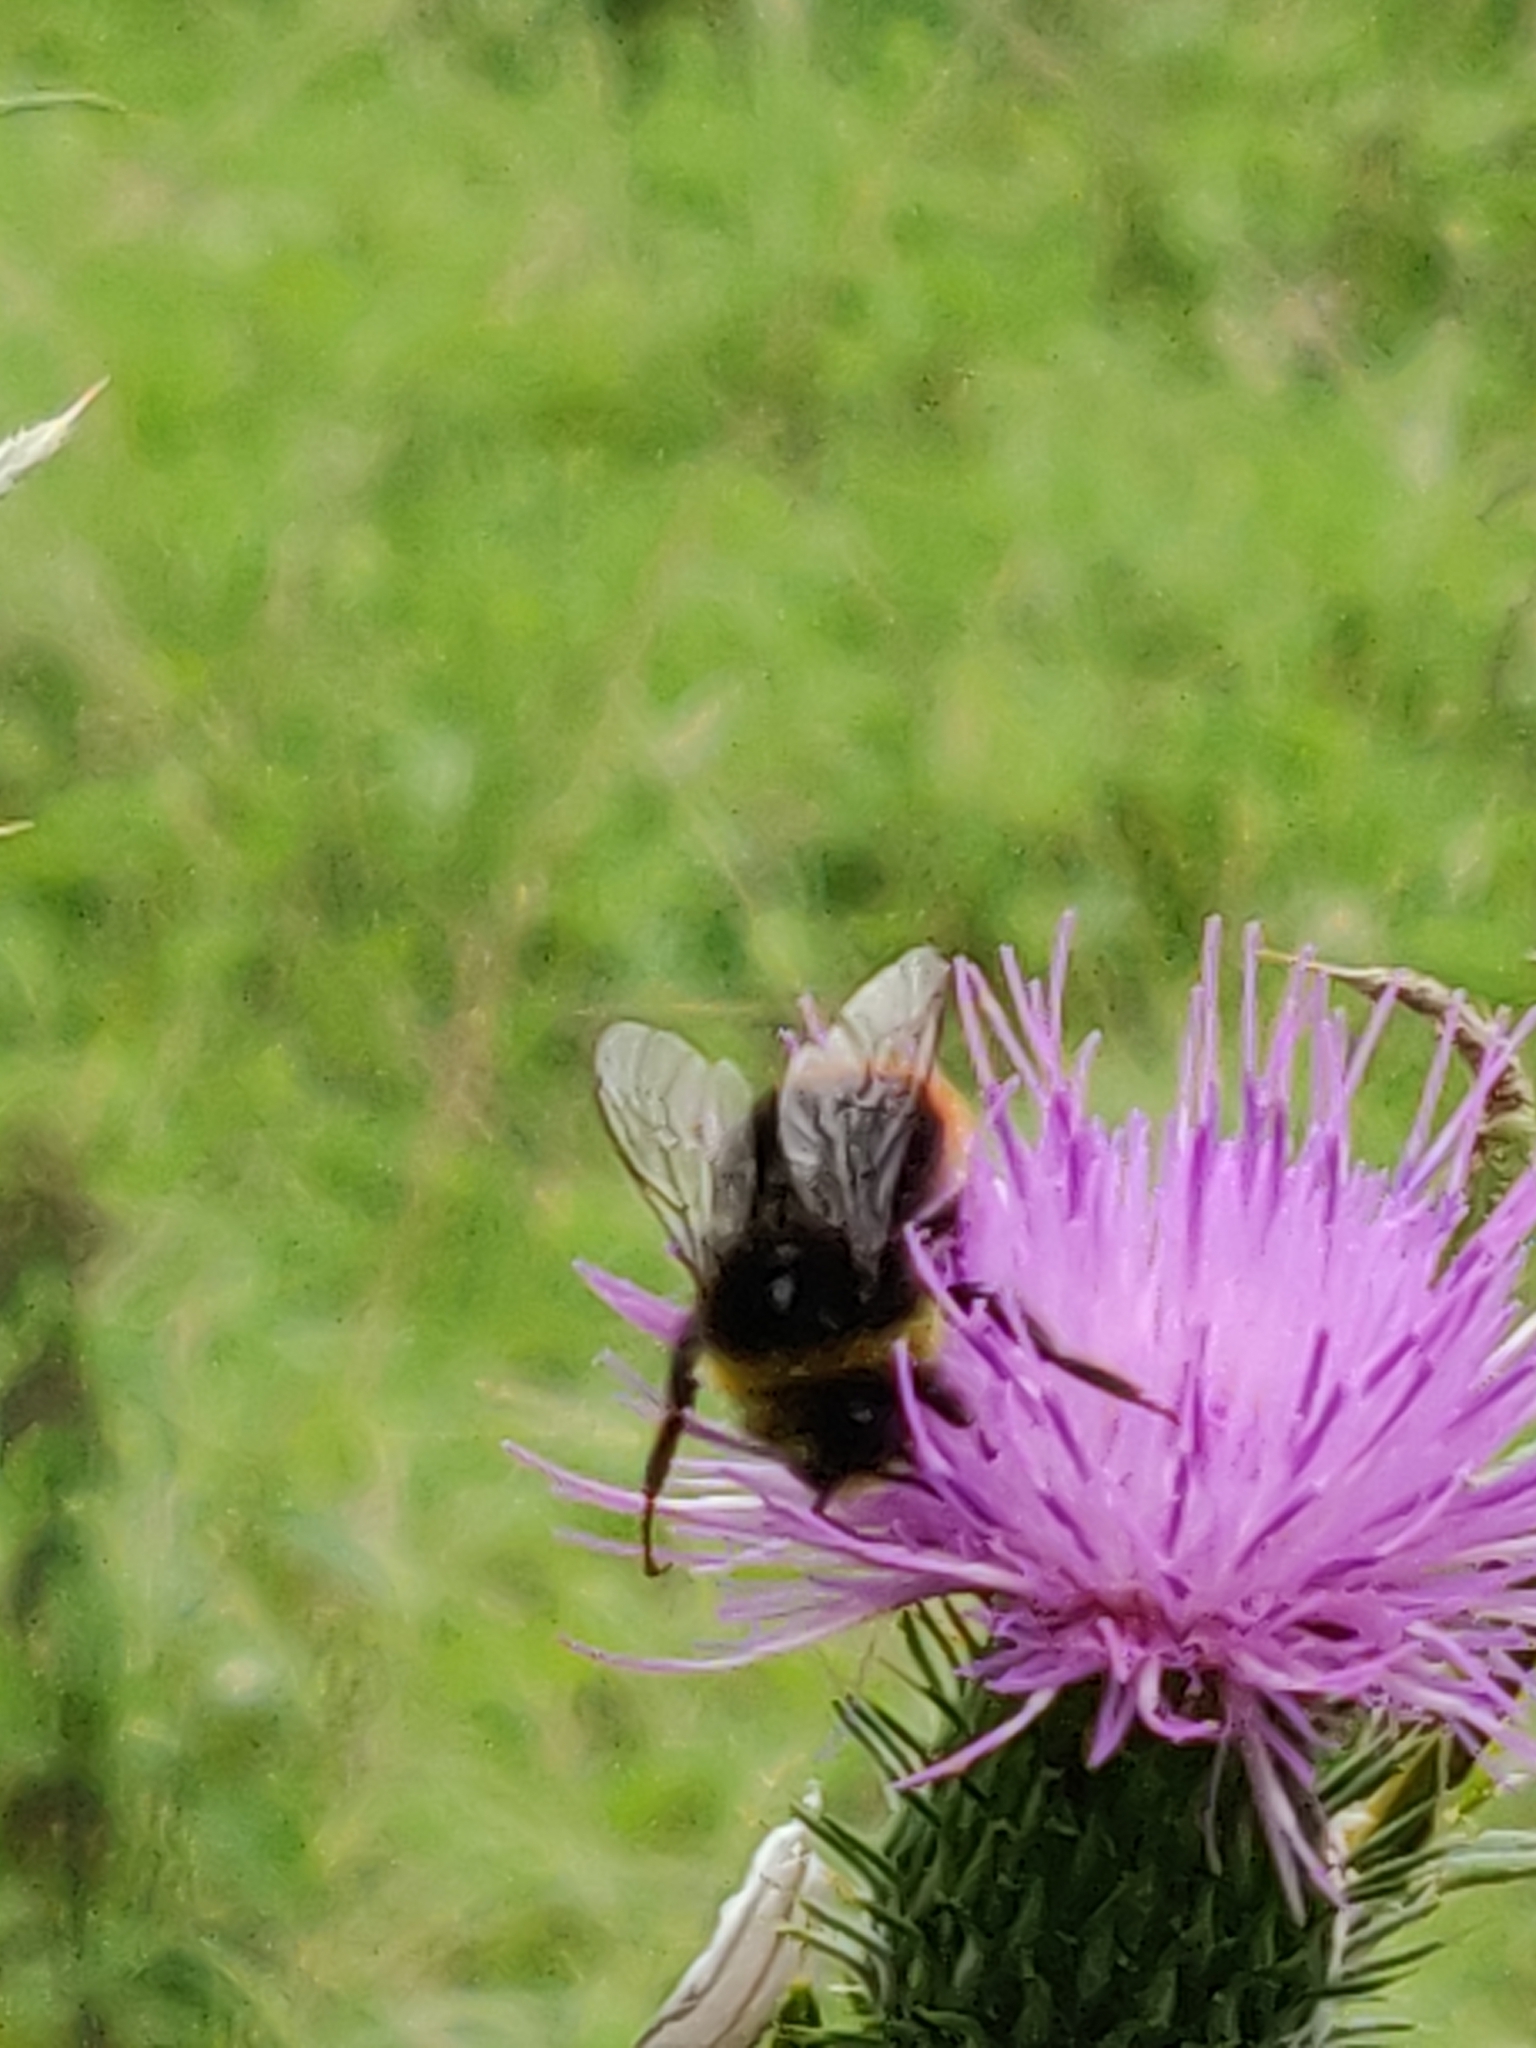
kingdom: Animalia
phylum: Arthropoda
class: Insecta
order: Hymenoptera
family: Apidae
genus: Bombus
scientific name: Bombus lapidarius
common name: Large red-tailed humble-bee
